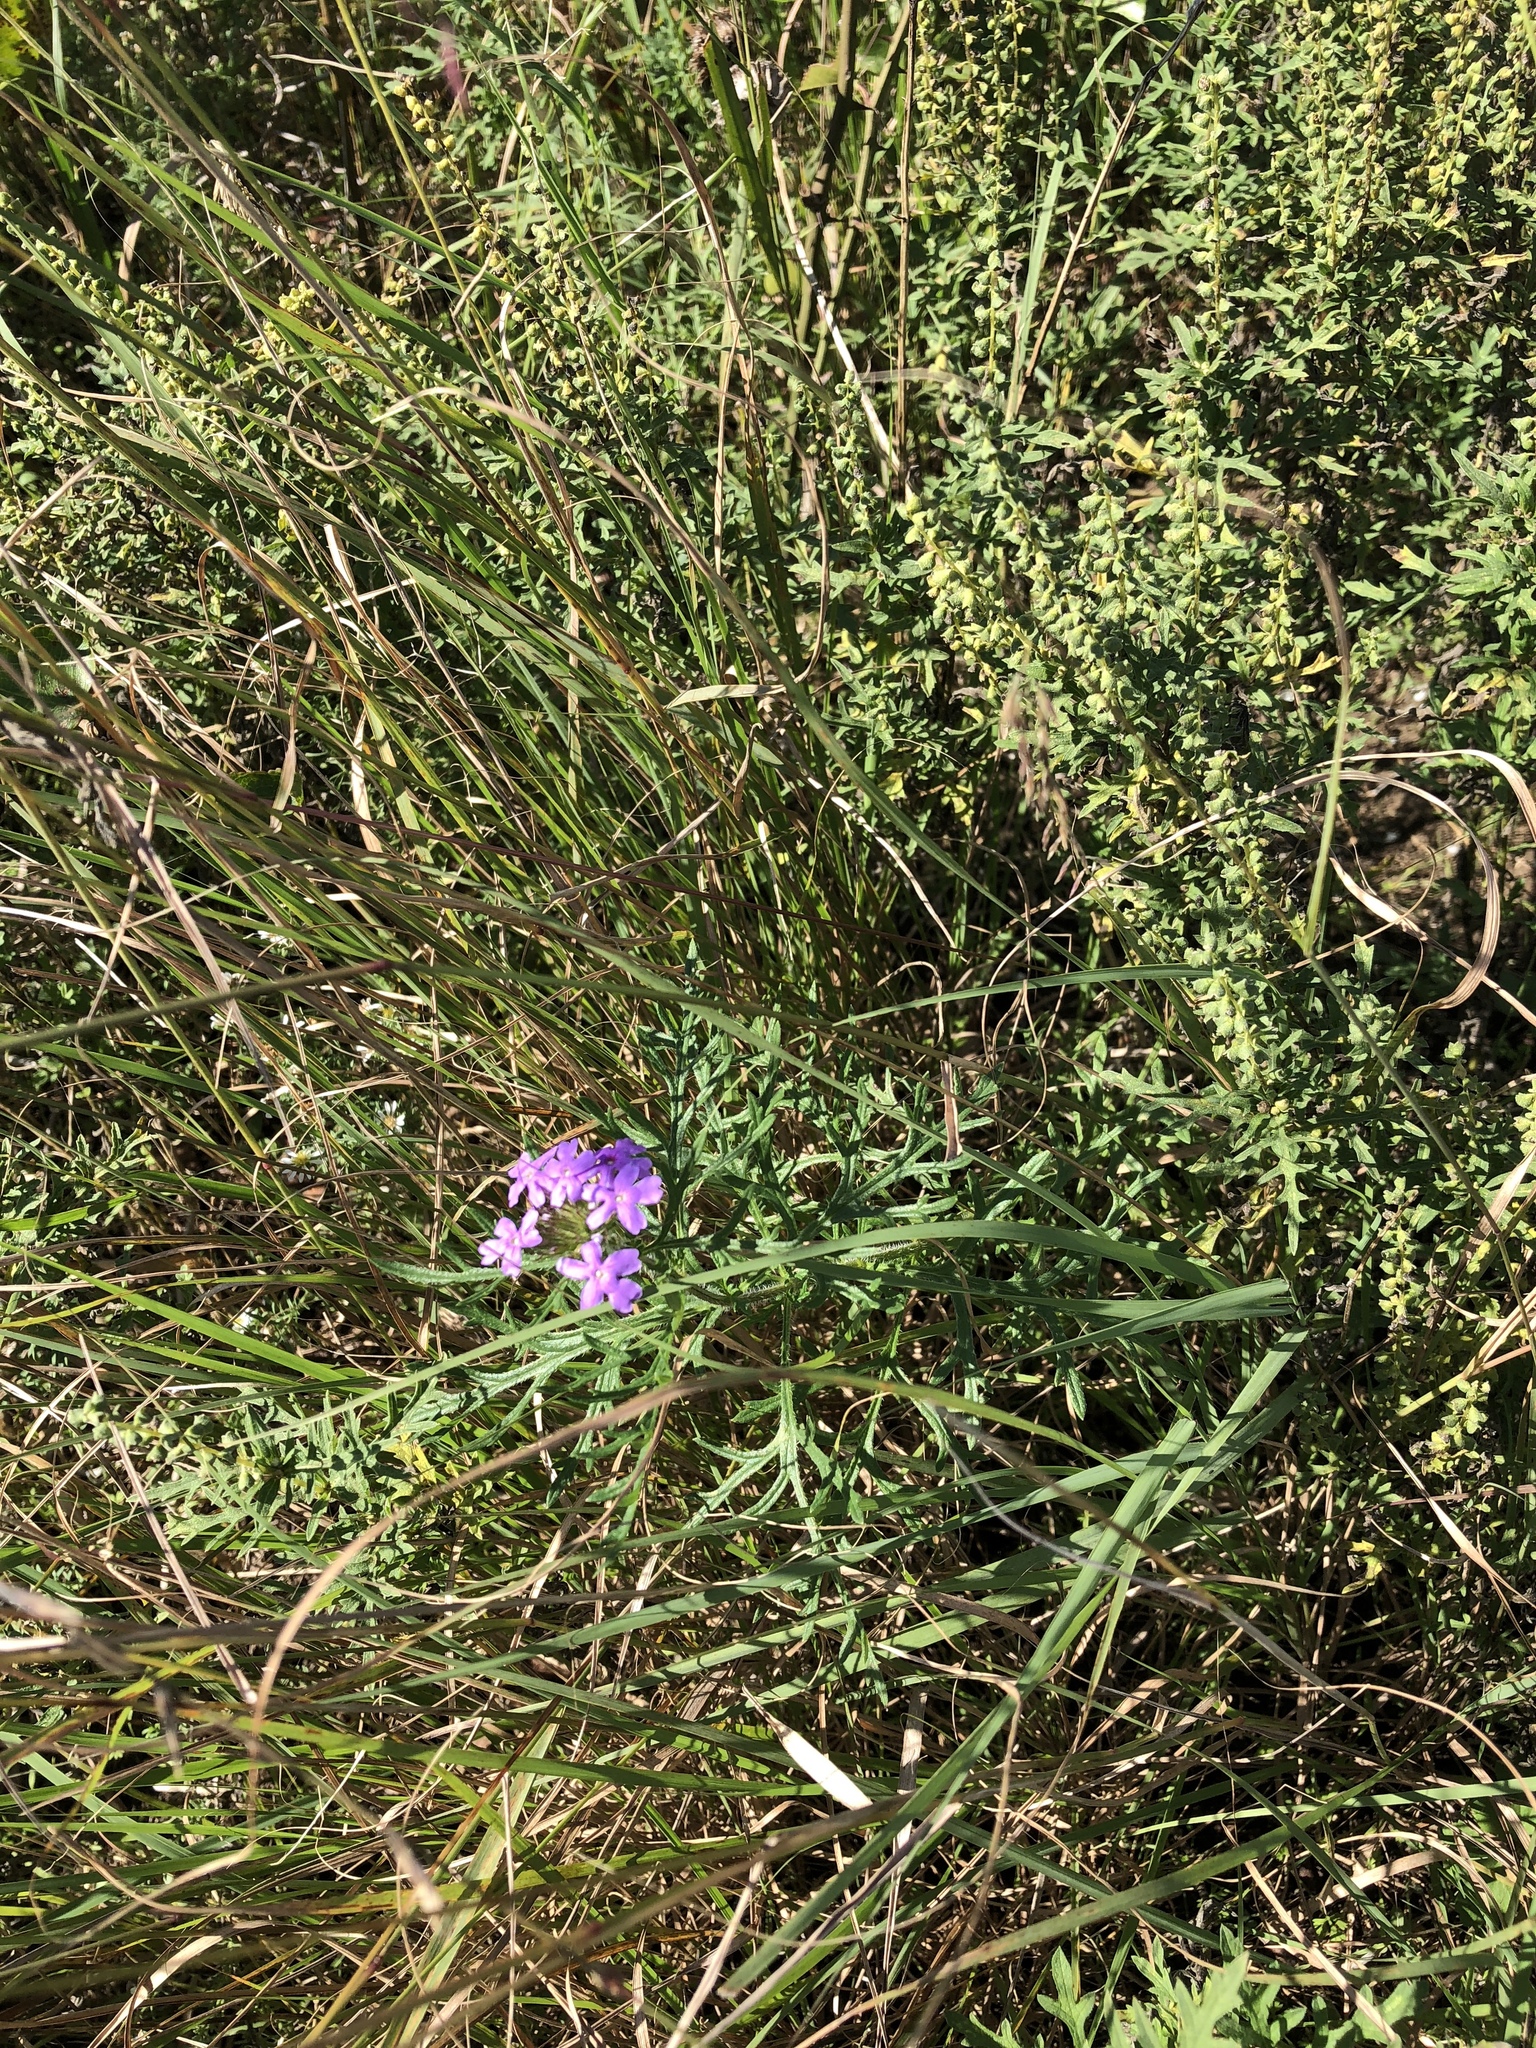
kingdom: Plantae
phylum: Tracheophyta
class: Magnoliopsida
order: Lamiales
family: Verbenaceae
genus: Verbena
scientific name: Verbena bipinnatifida
